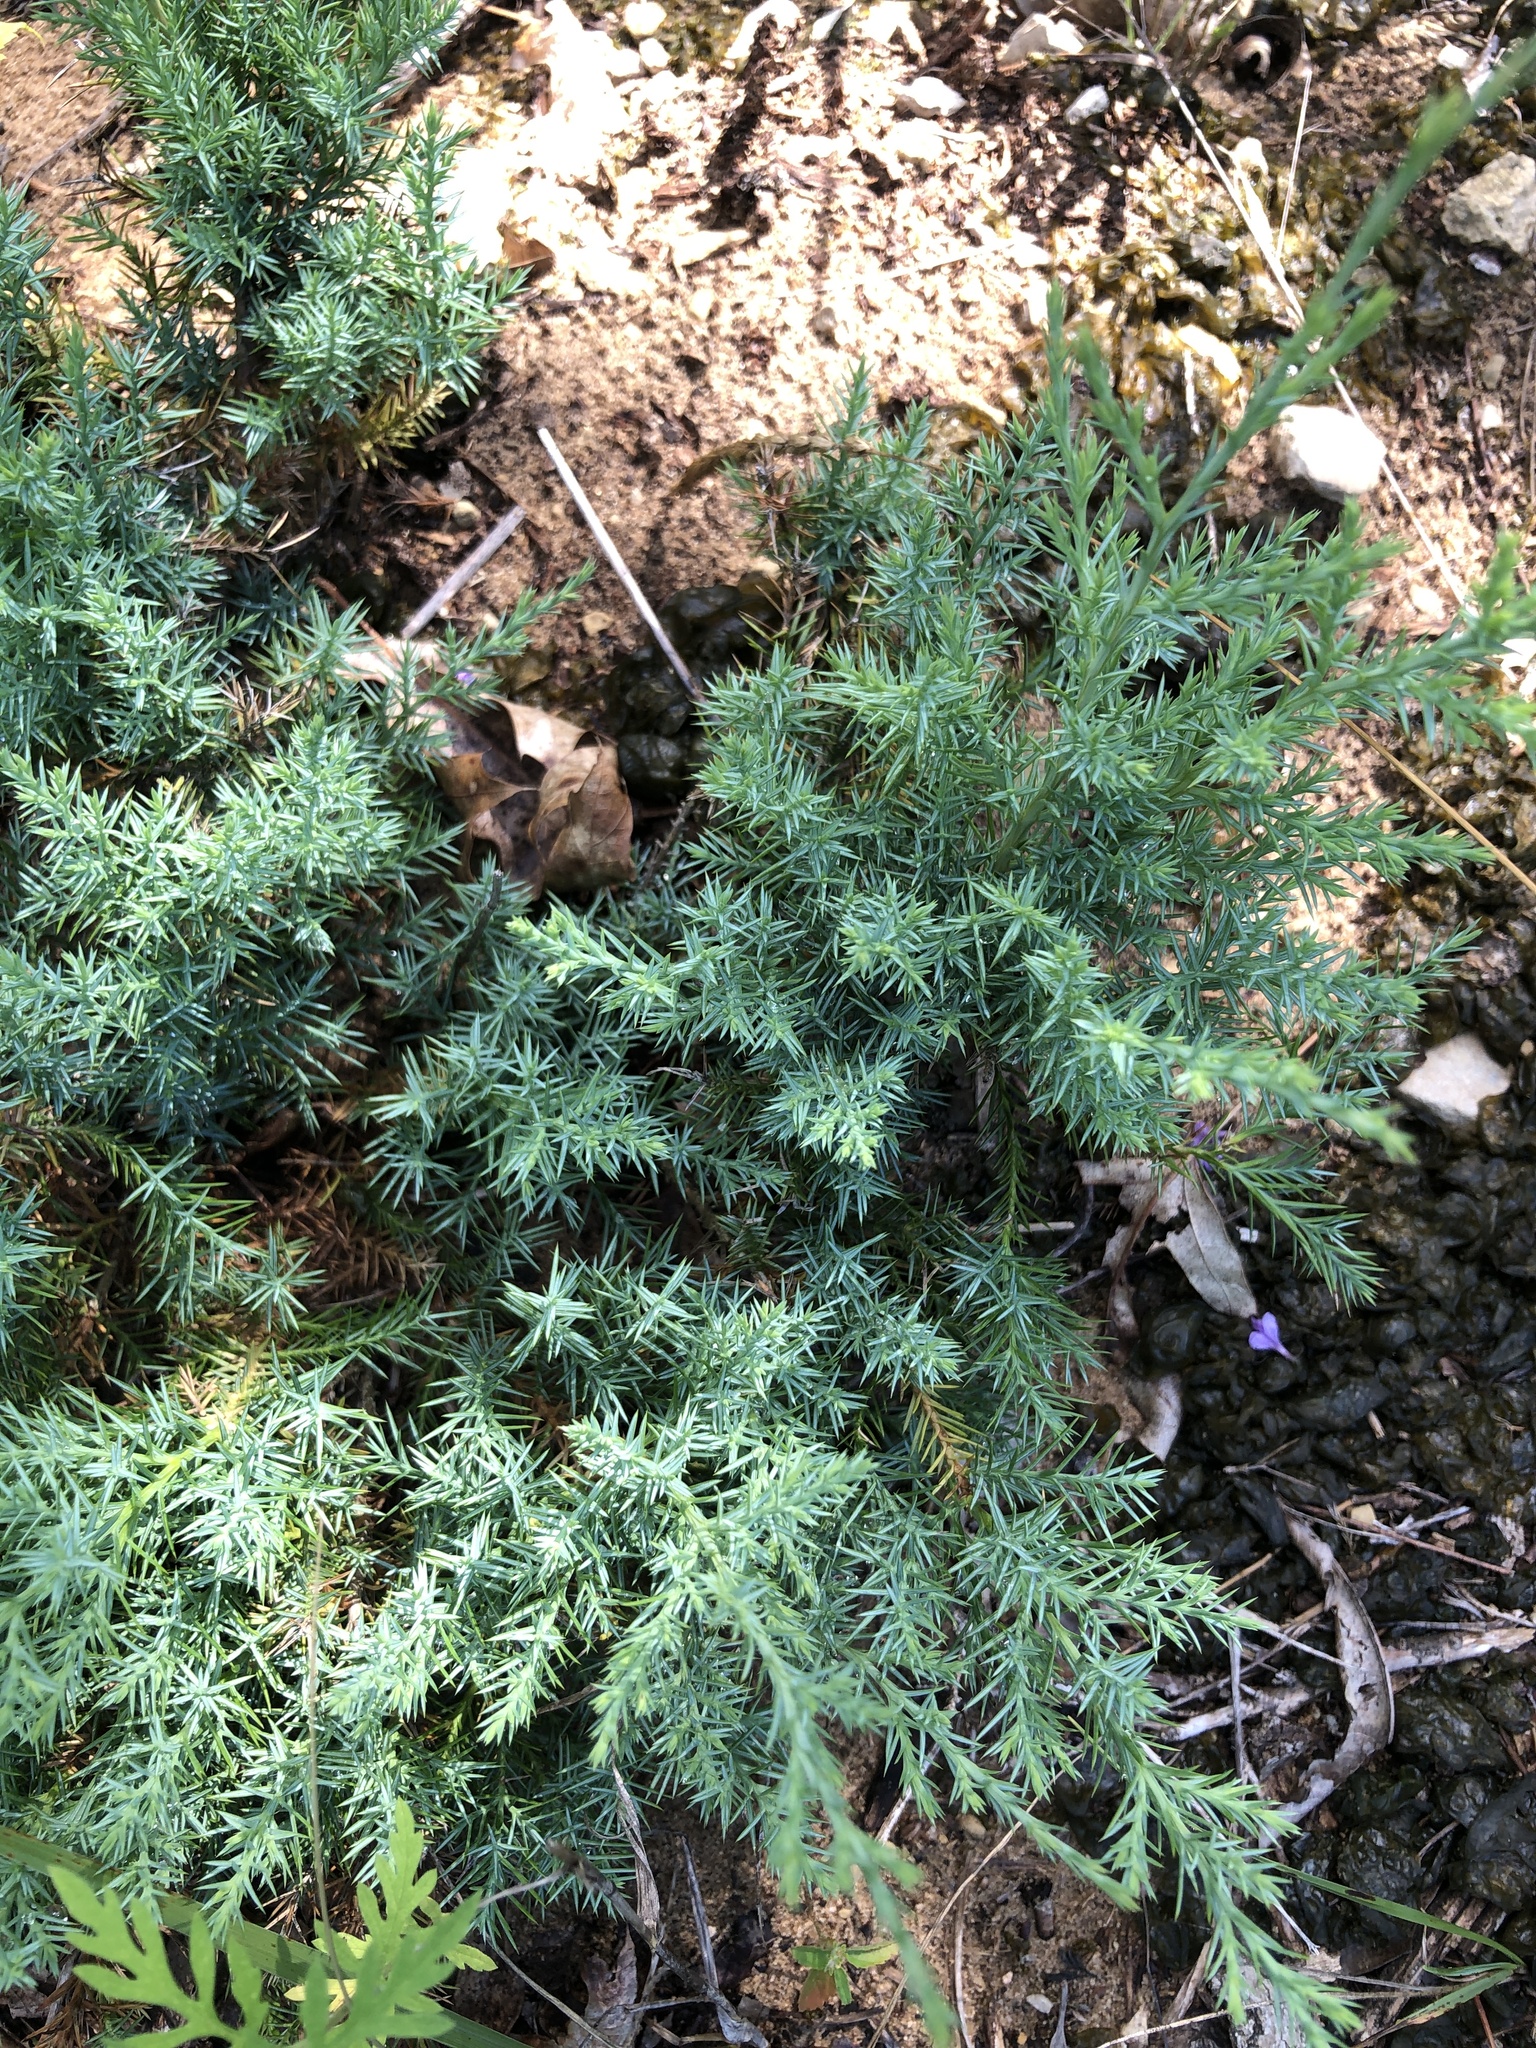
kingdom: Plantae
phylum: Tracheophyta
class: Pinopsida
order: Pinales
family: Cupressaceae
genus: Juniperus
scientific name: Juniperus virginiana
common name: Red juniper
